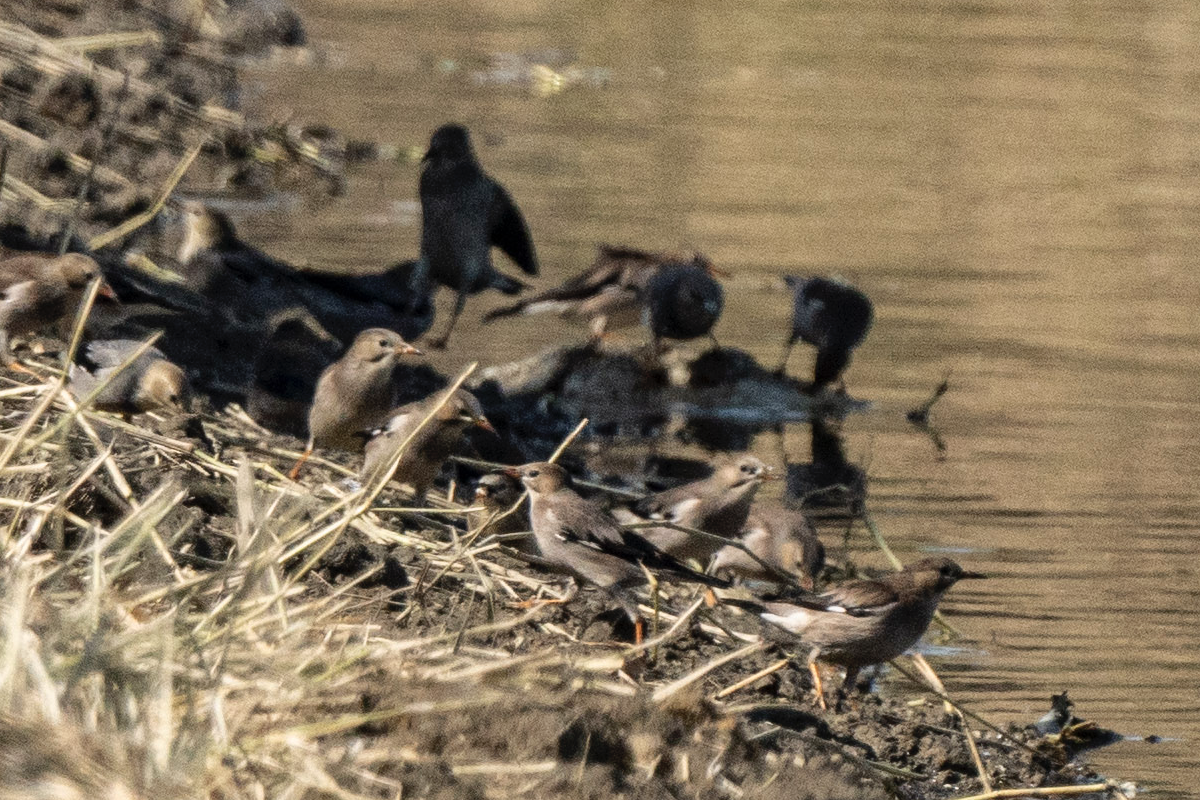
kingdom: Animalia
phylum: Chordata
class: Aves
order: Passeriformes
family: Sturnidae
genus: Spodiopsar
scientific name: Spodiopsar sericeus
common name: Red-billed starling
